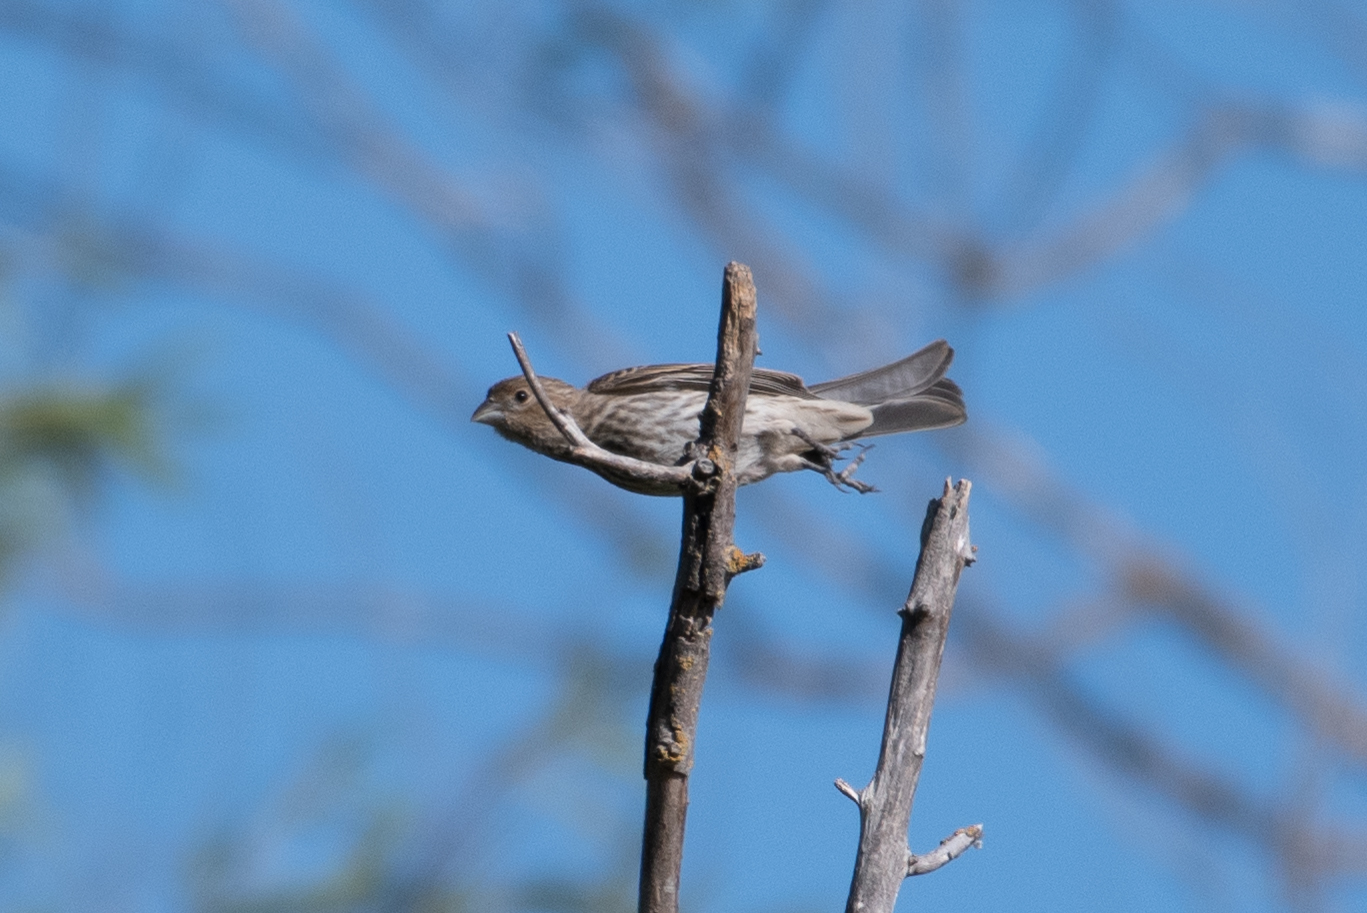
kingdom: Animalia
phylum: Chordata
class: Aves
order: Passeriformes
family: Fringillidae
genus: Haemorhous
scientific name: Haemorhous mexicanus
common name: House finch
